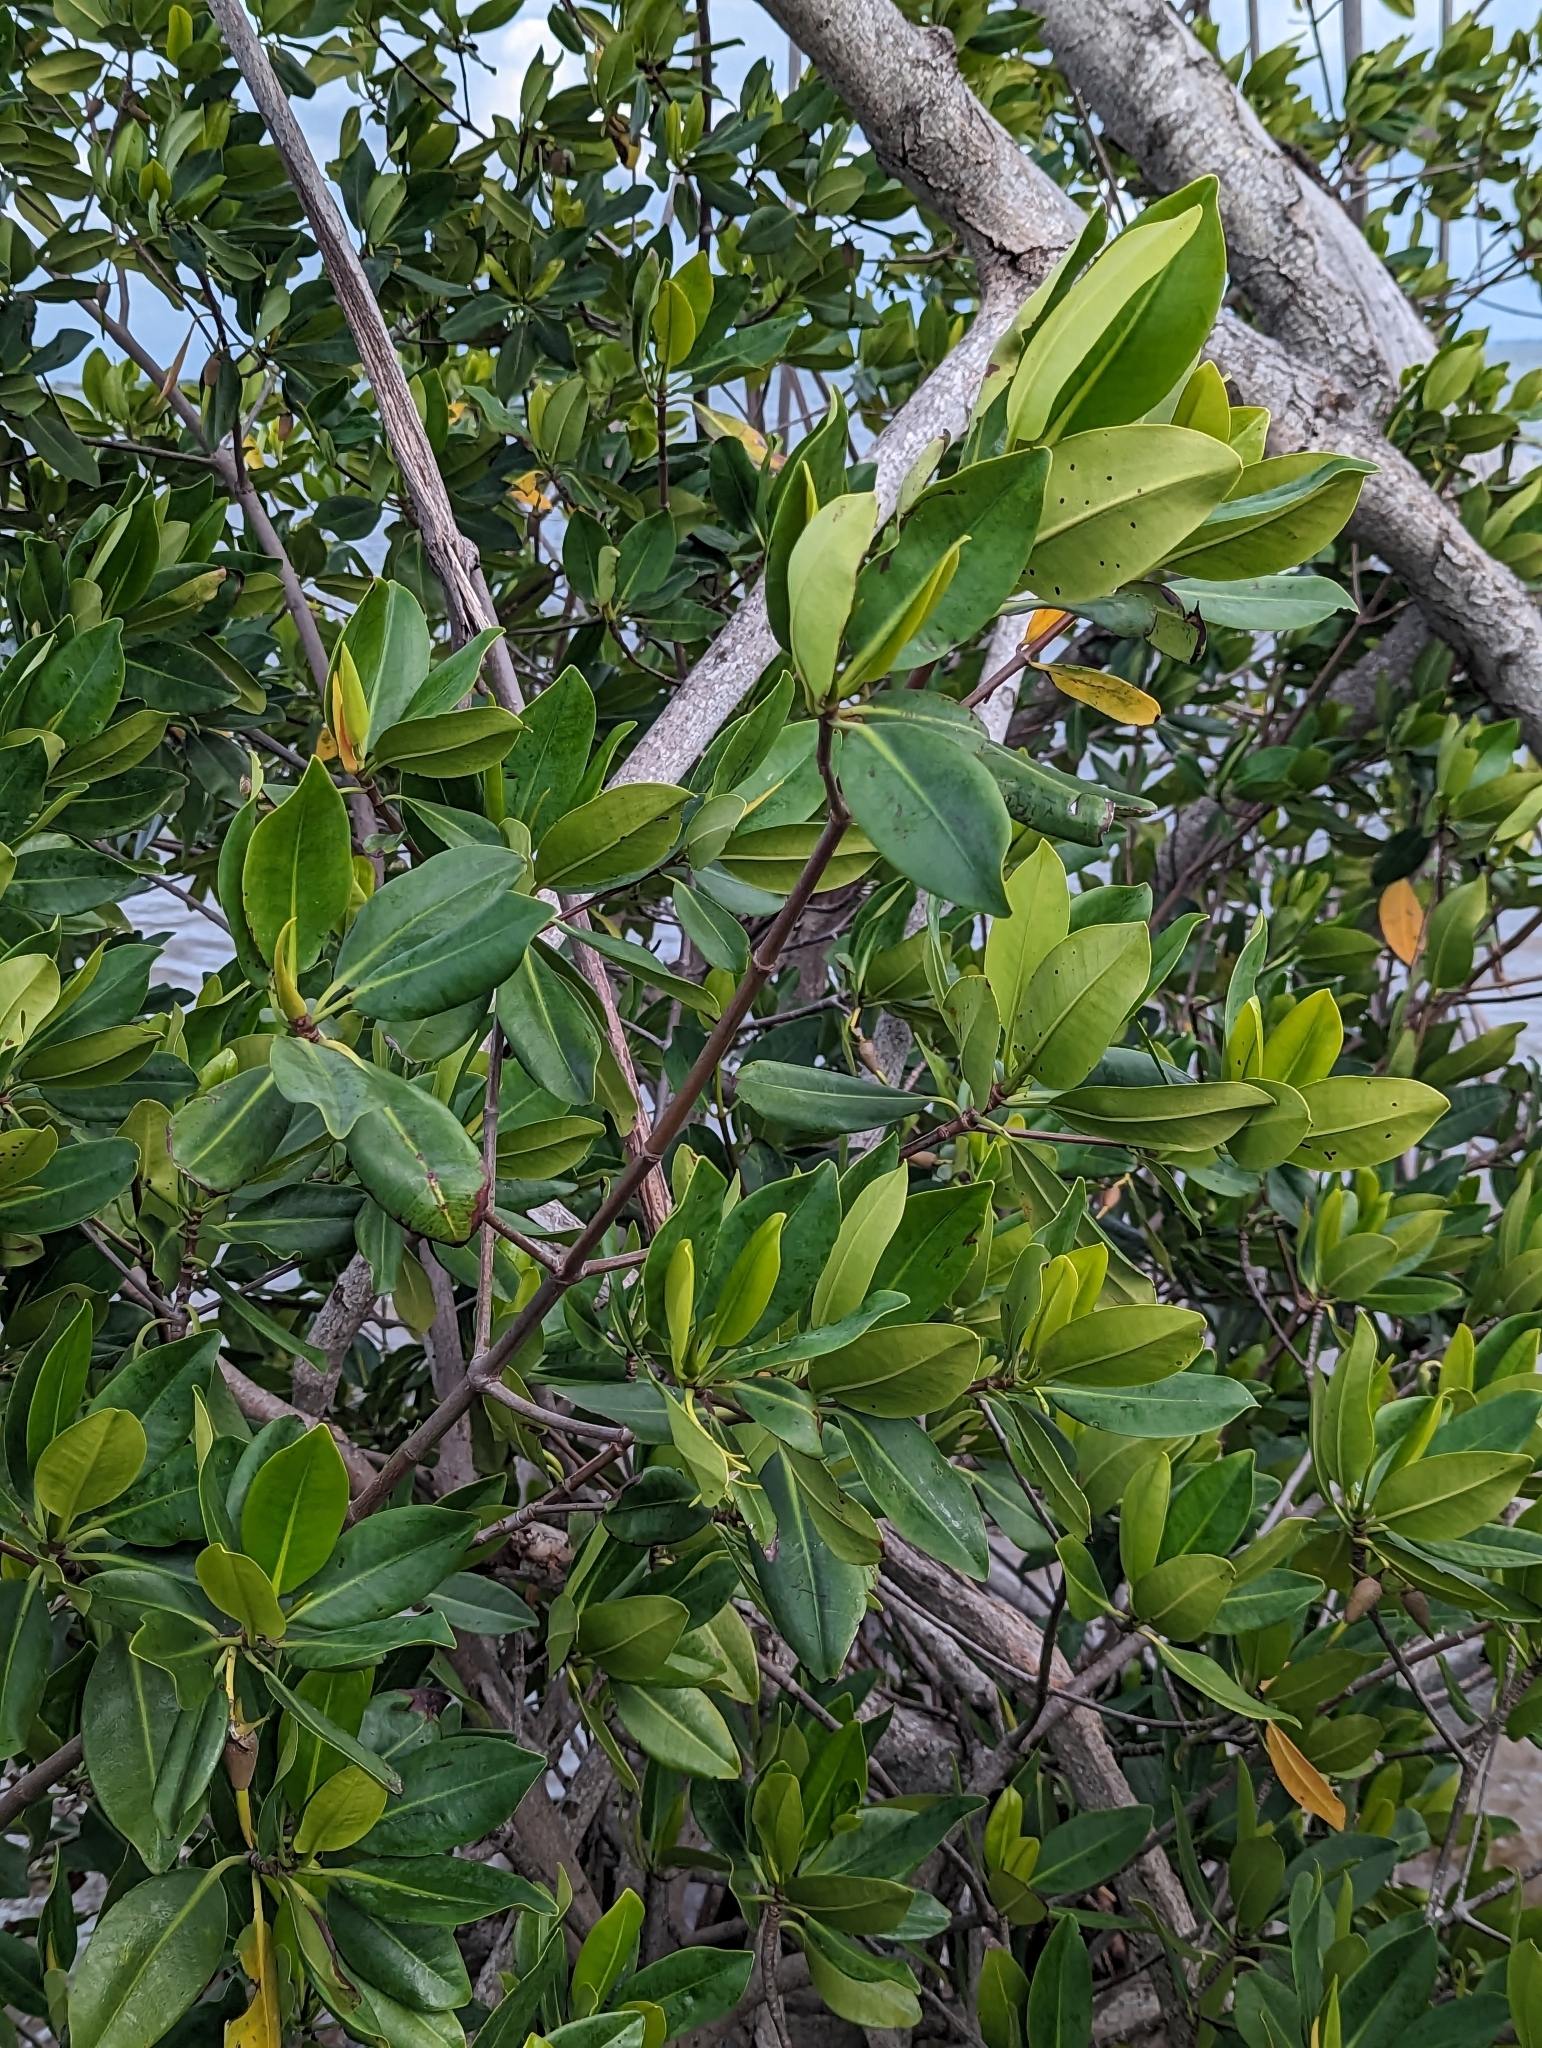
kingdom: Plantae
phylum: Tracheophyta
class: Magnoliopsida
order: Malpighiales
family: Rhizophoraceae
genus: Rhizophora
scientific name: Rhizophora mangle
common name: Red mangrove
